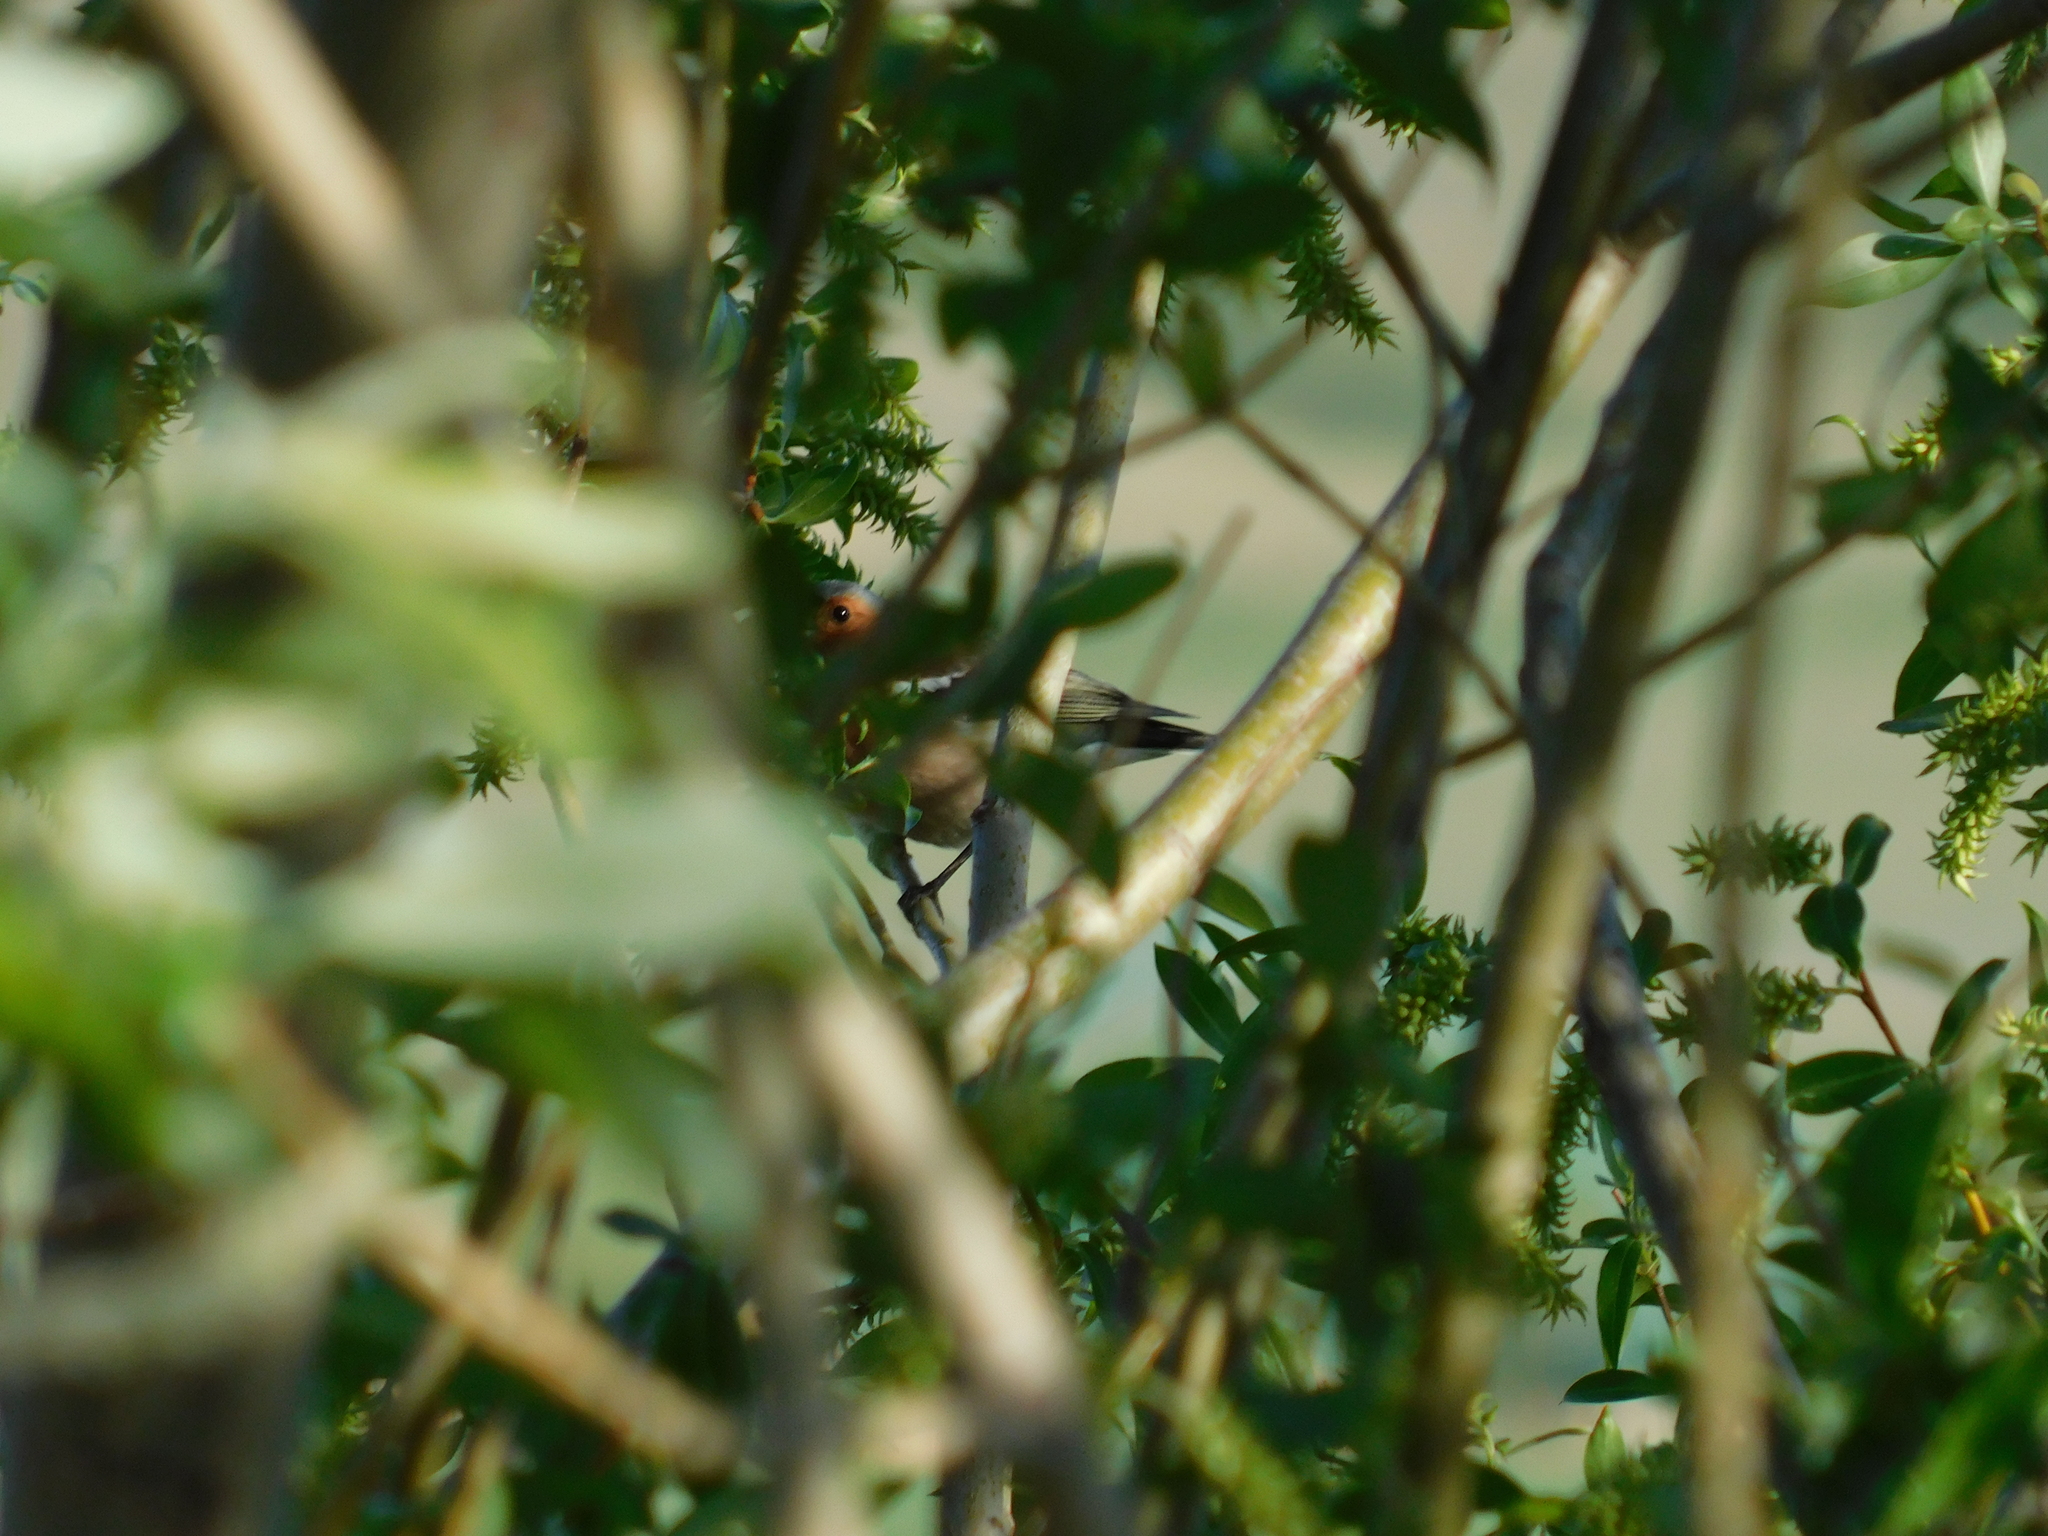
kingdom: Animalia
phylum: Chordata
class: Aves
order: Passeriformes
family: Fringillidae
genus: Fringilla
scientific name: Fringilla coelebs
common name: Common chaffinch
